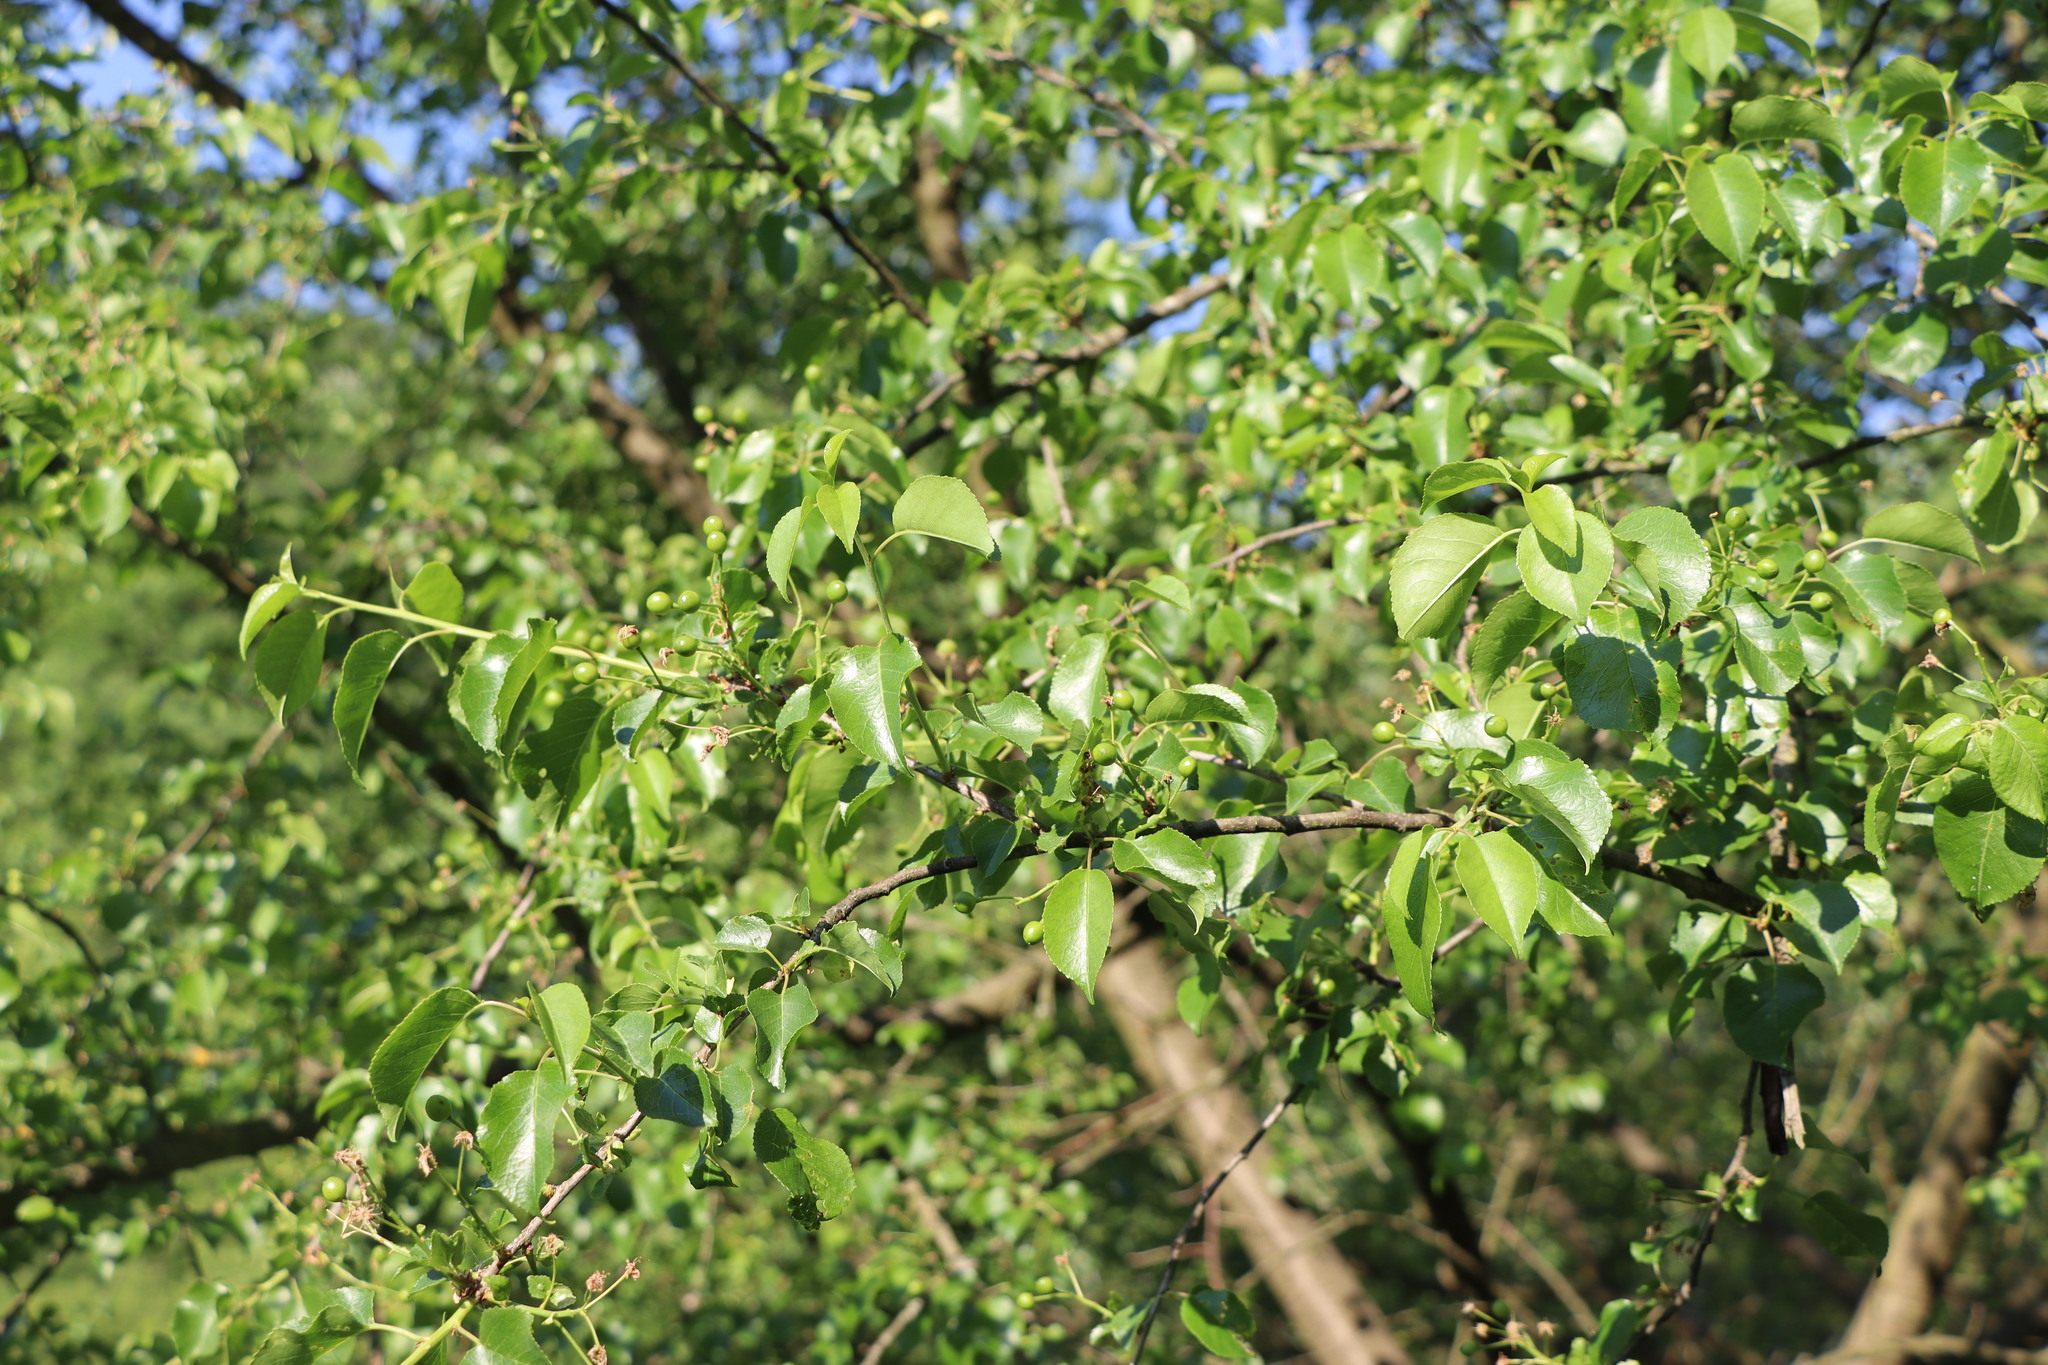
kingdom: Plantae
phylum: Tracheophyta
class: Magnoliopsida
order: Rosales
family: Rosaceae
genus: Prunus
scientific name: Prunus mahaleb
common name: Mahaleb cherry
